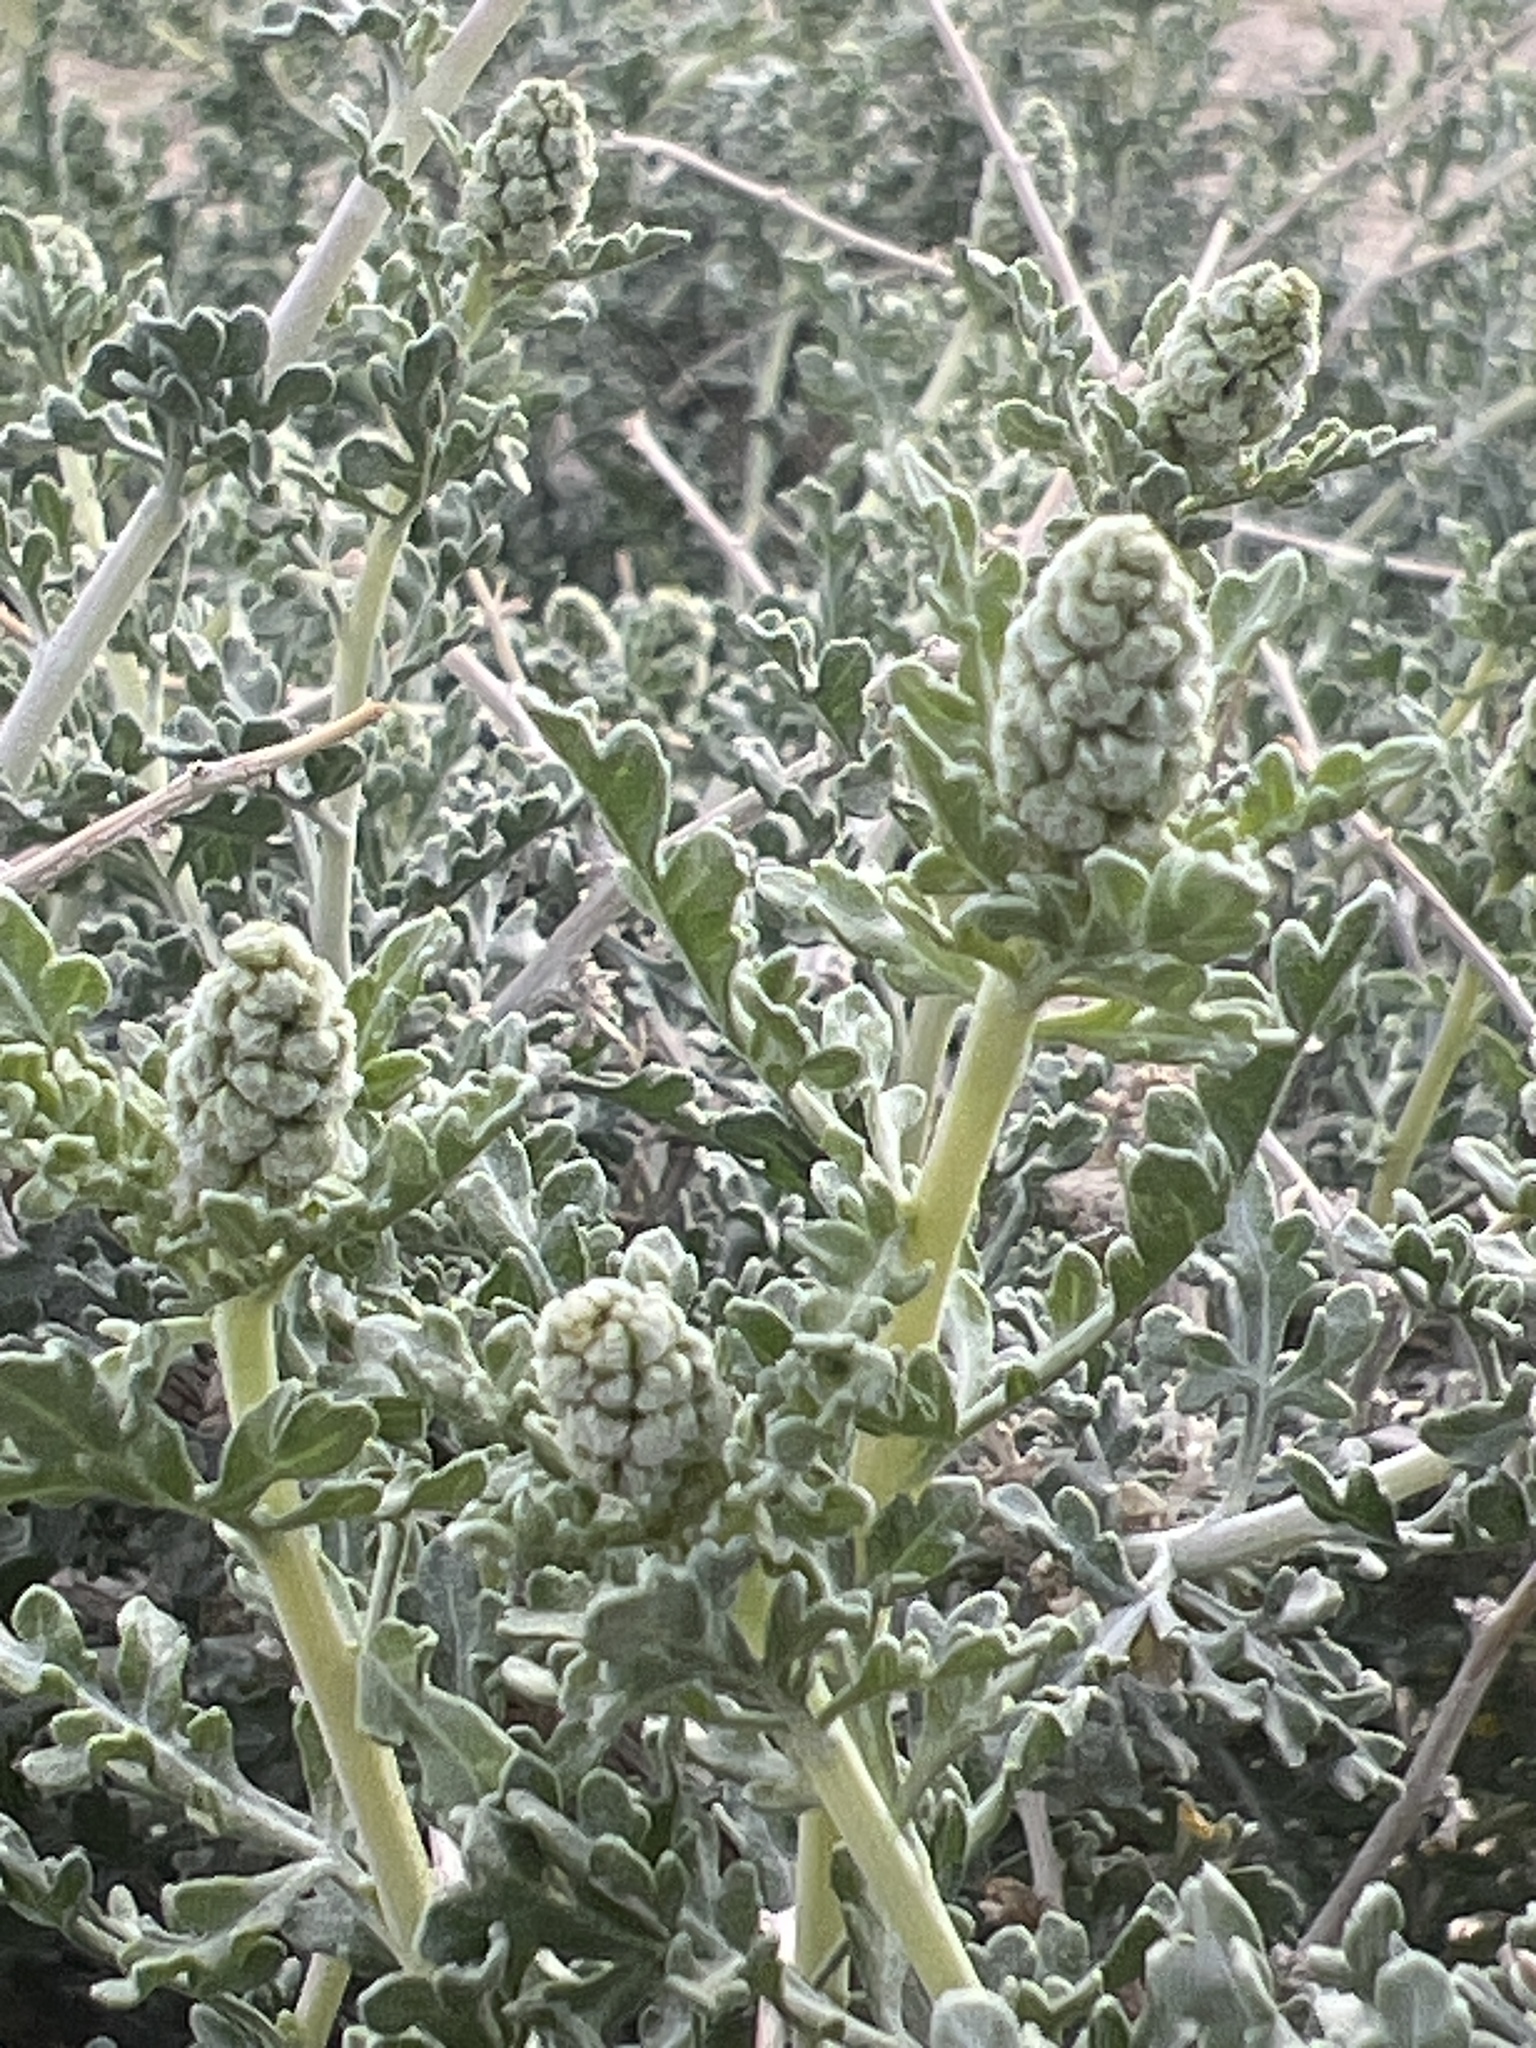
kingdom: Plantae
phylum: Tracheophyta
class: Magnoliopsida
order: Asterales
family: Asteraceae
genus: Ambrosia
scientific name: Ambrosia dumosa
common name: Bur-sage
